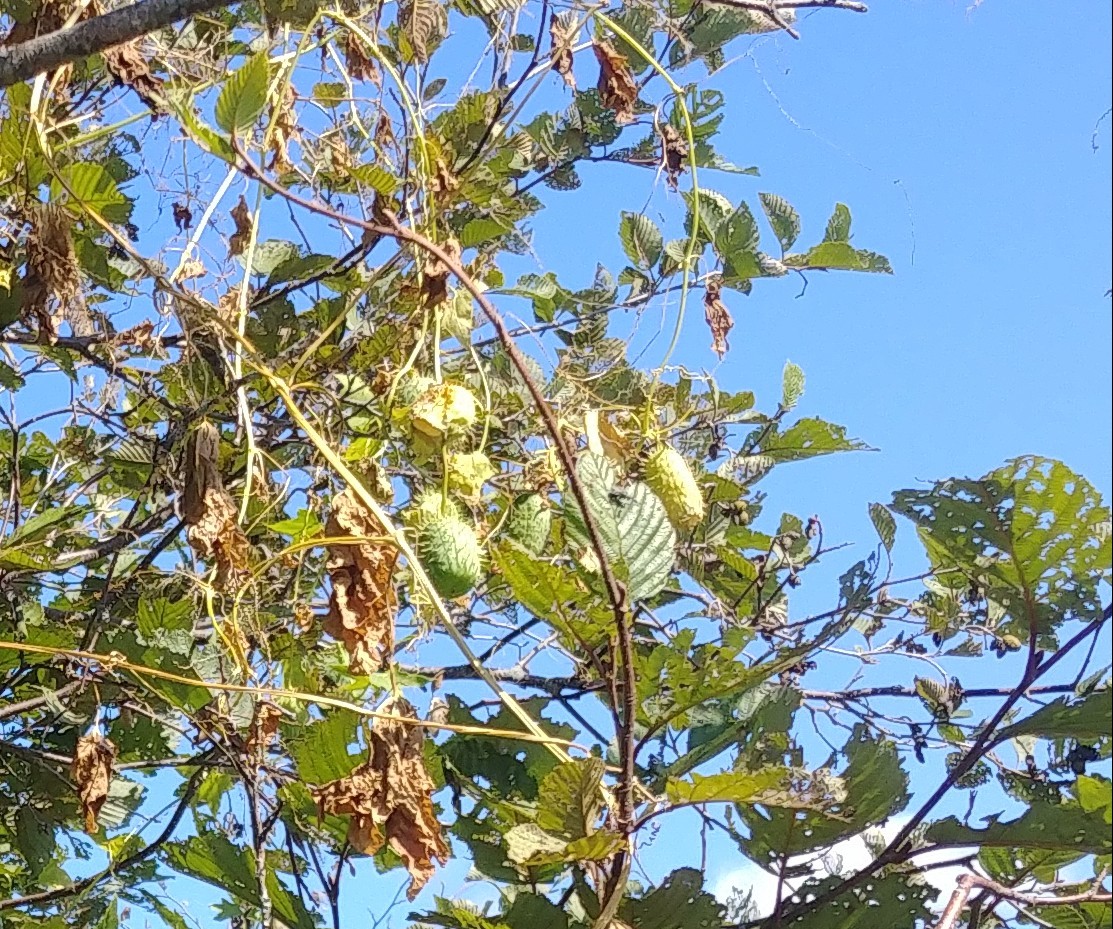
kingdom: Plantae
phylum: Tracheophyta
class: Magnoliopsida
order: Cucurbitales
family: Cucurbitaceae
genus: Echinocystis
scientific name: Echinocystis lobata
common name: Wild cucumber
